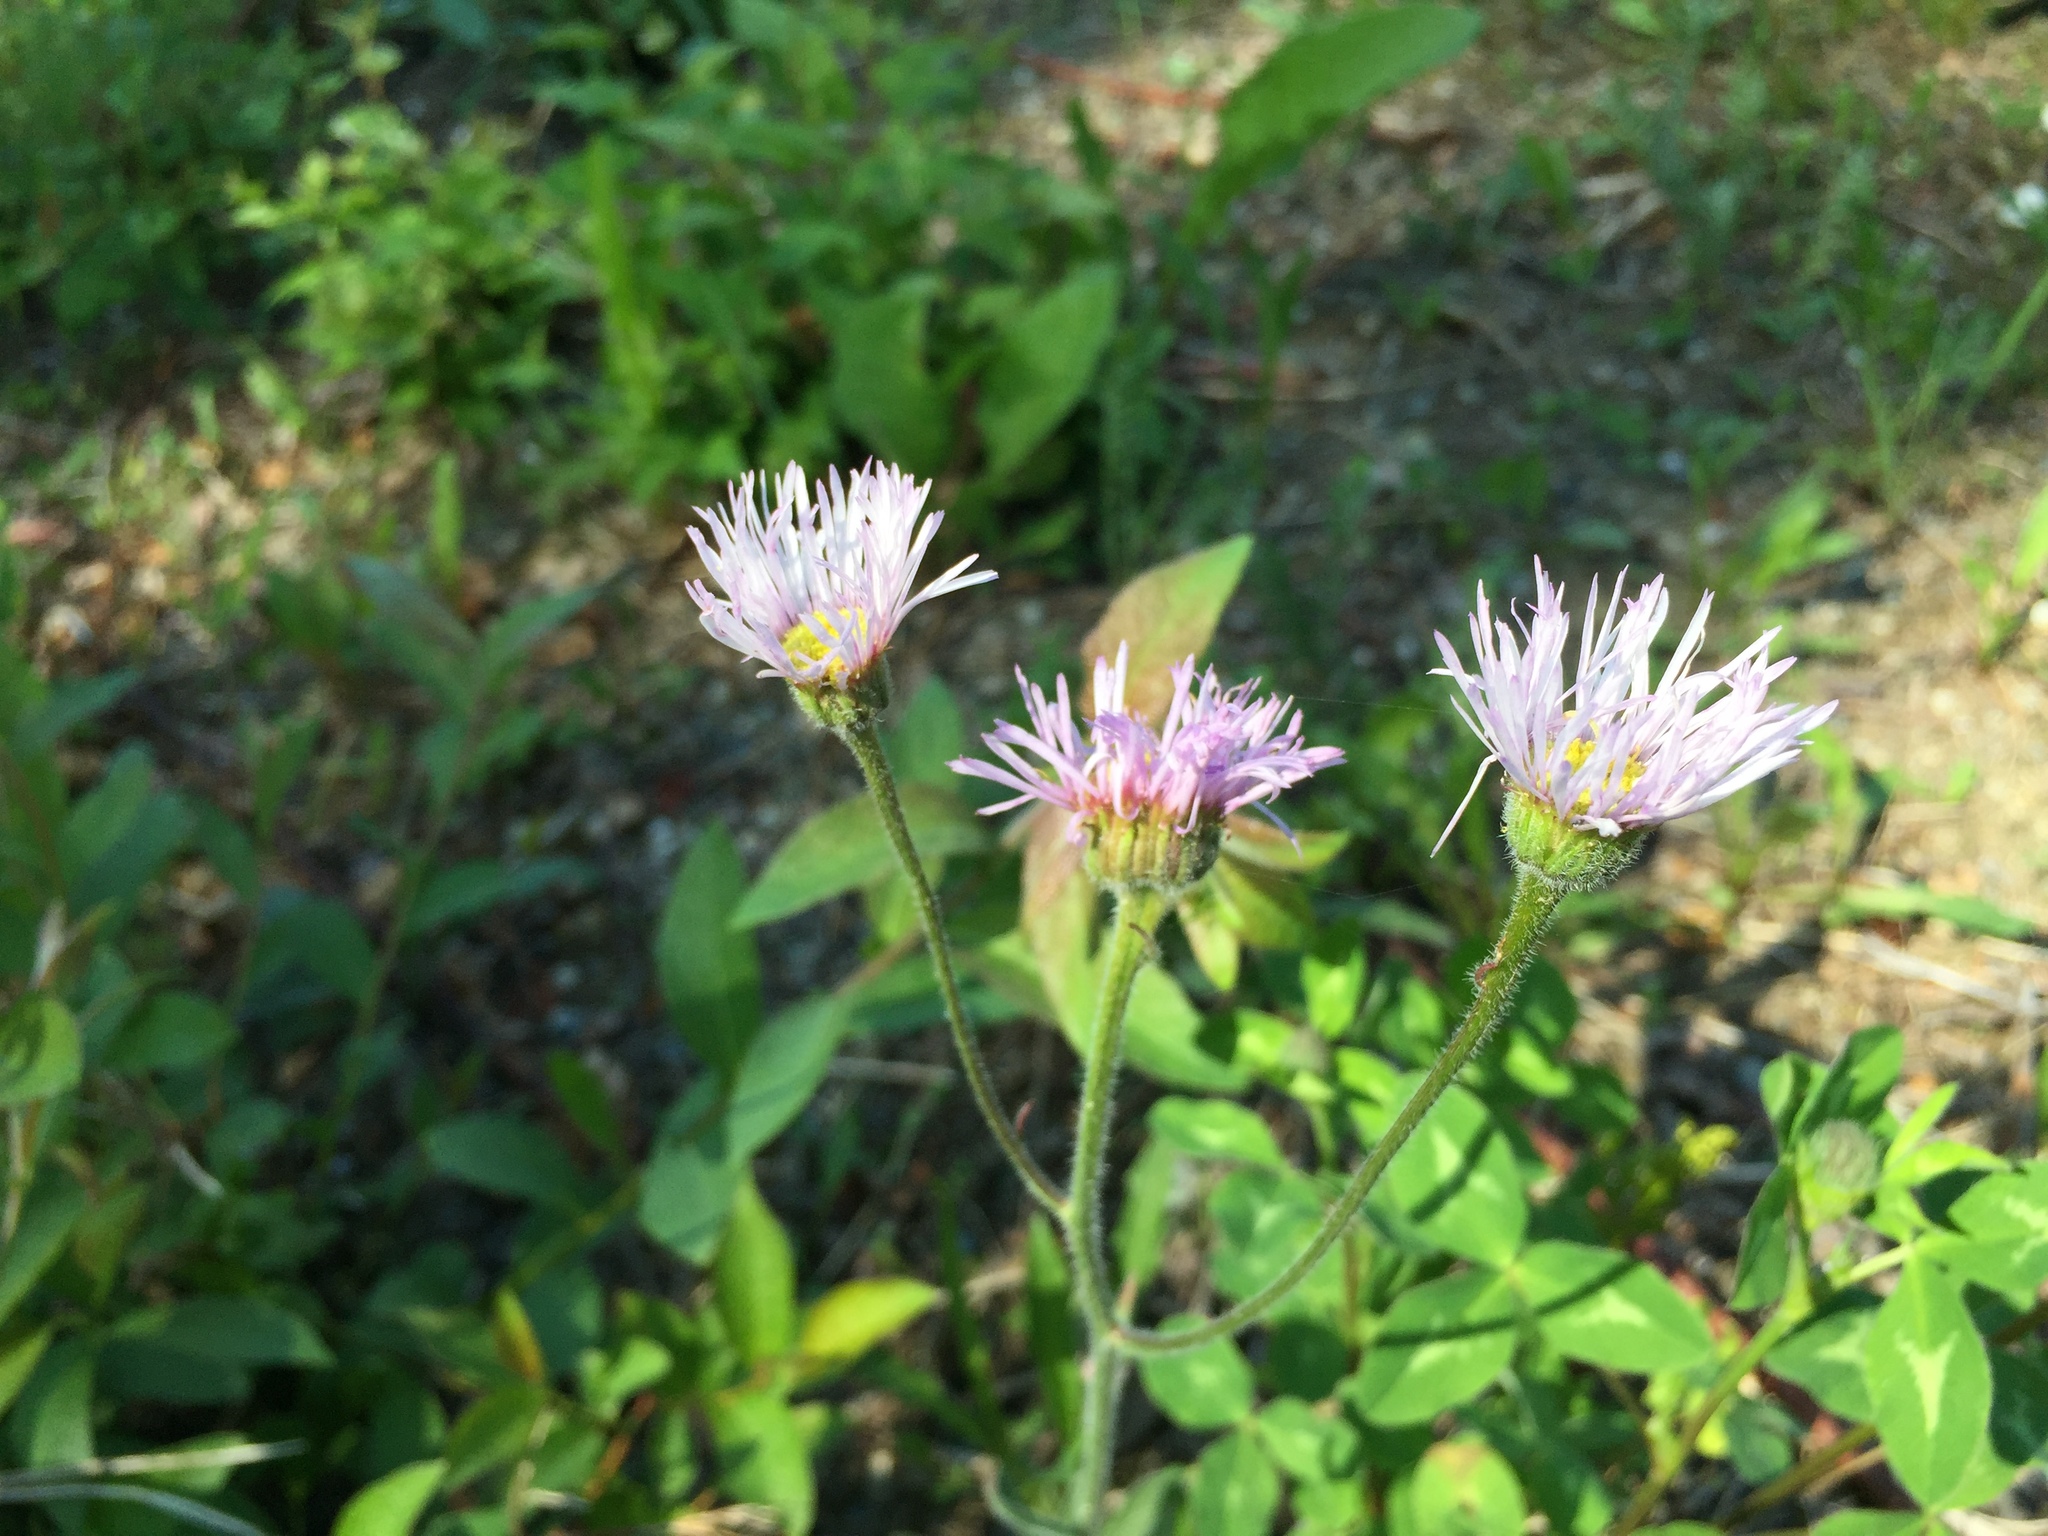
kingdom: Plantae
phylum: Tracheophyta
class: Magnoliopsida
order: Asterales
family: Asteraceae
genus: Erigeron
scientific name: Erigeron glabellus
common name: Smooth fleabane
